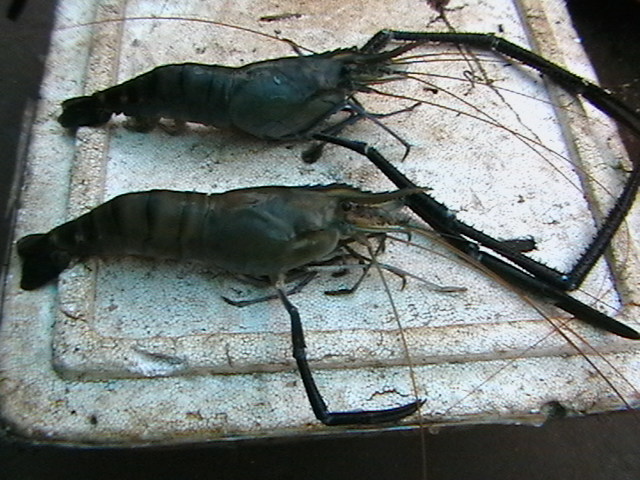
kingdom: Animalia
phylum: Arthropoda
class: Malacostraca
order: Decapoda
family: Palaemonidae
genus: Macrobrachium
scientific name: Macrobrachium rosenbergii
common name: Giant river prawn
